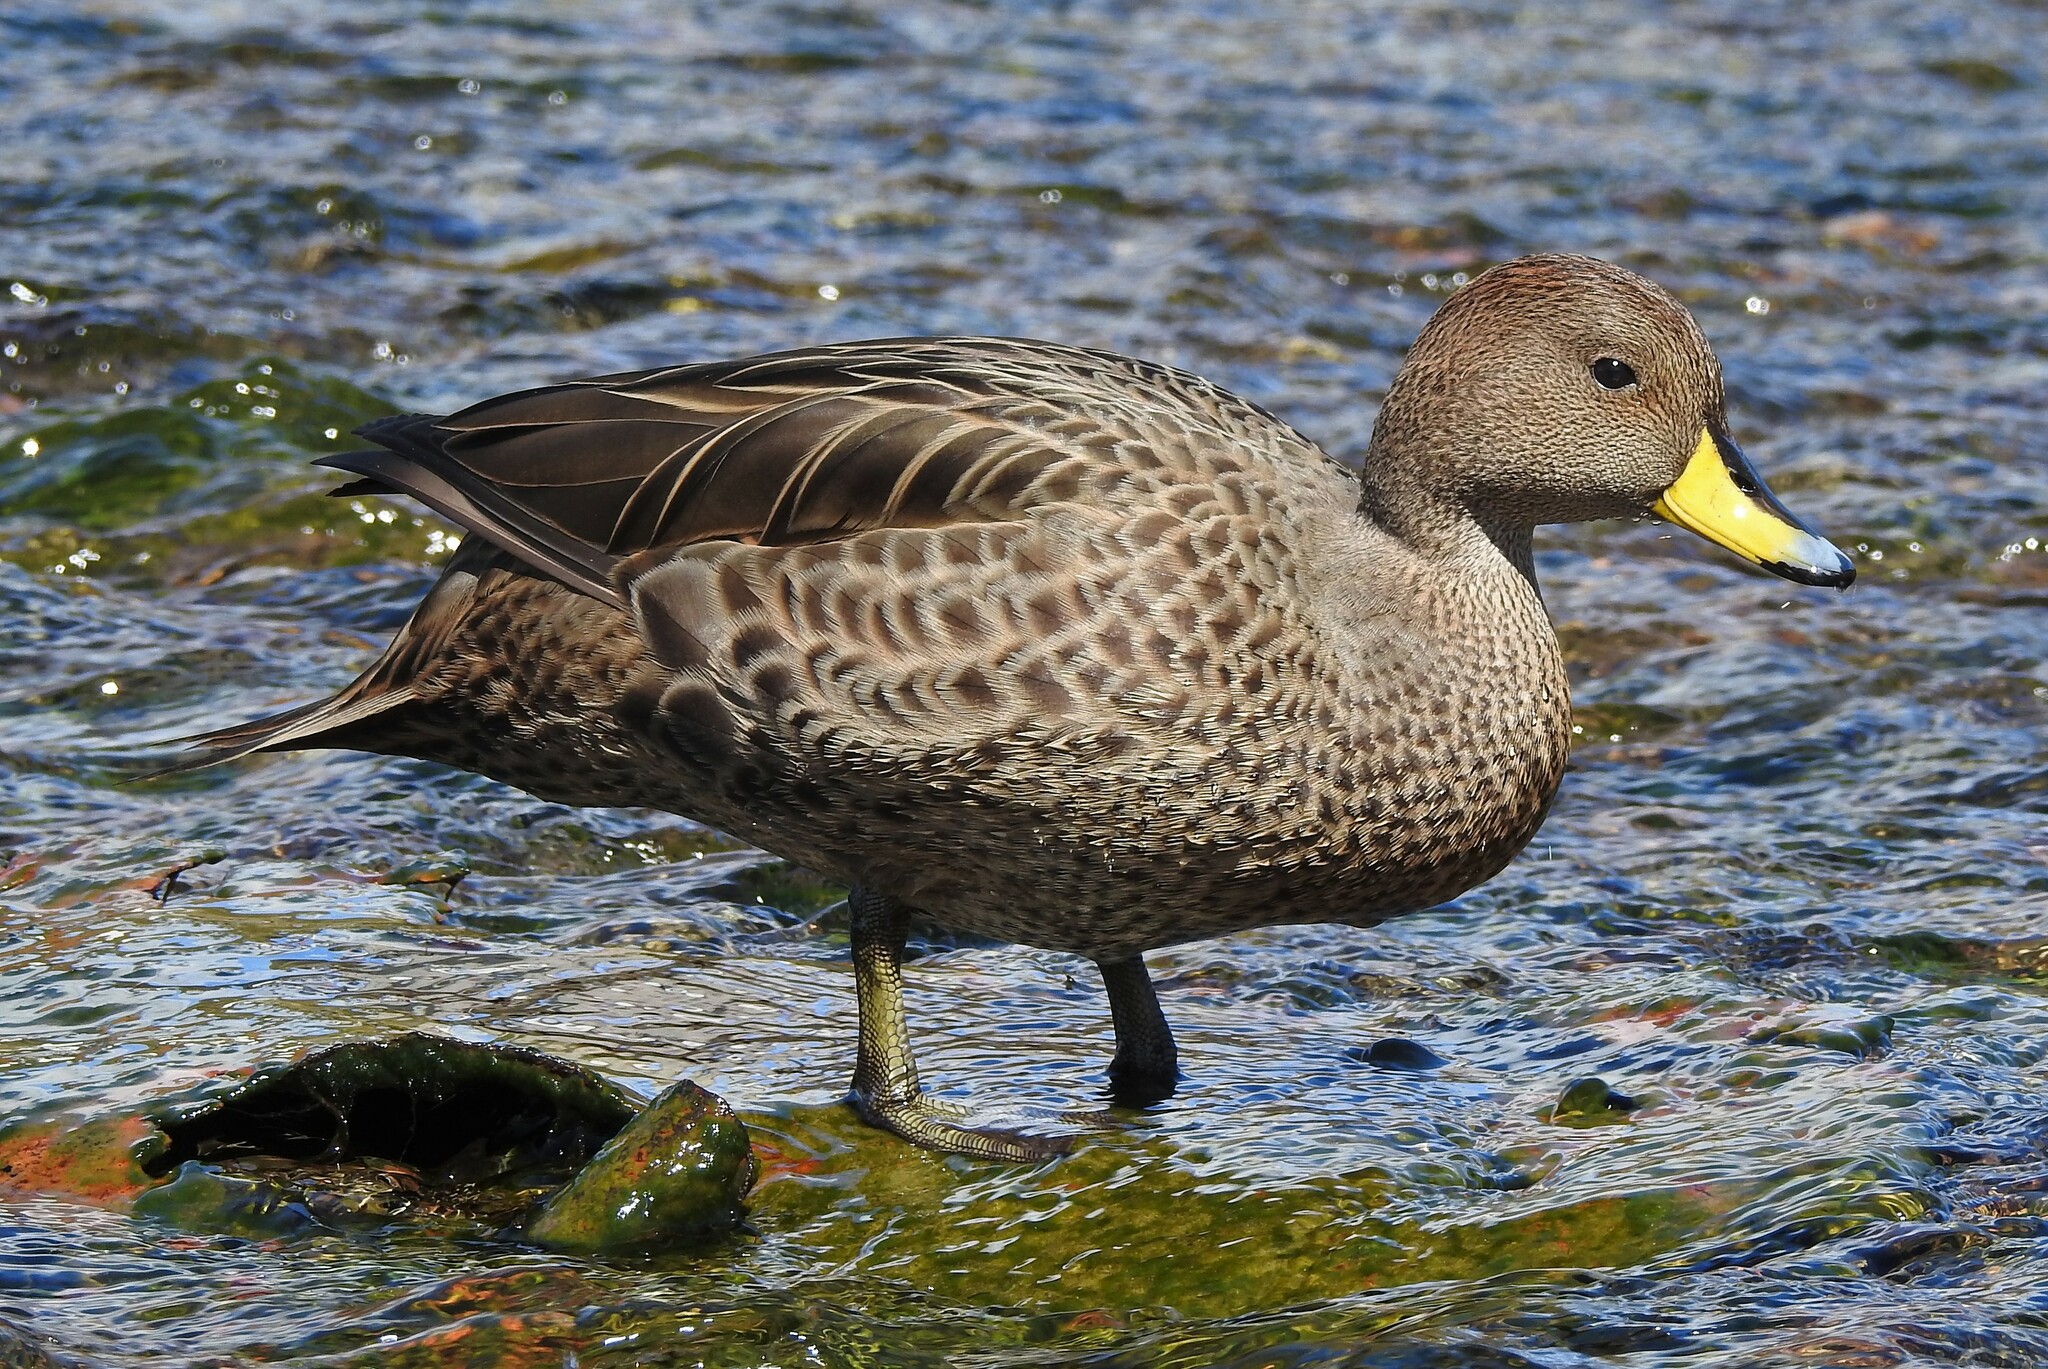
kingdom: Animalia
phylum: Chordata
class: Aves
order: Anseriformes
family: Anatidae
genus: Anas
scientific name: Anas georgica
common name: Yellow-billed pintail
